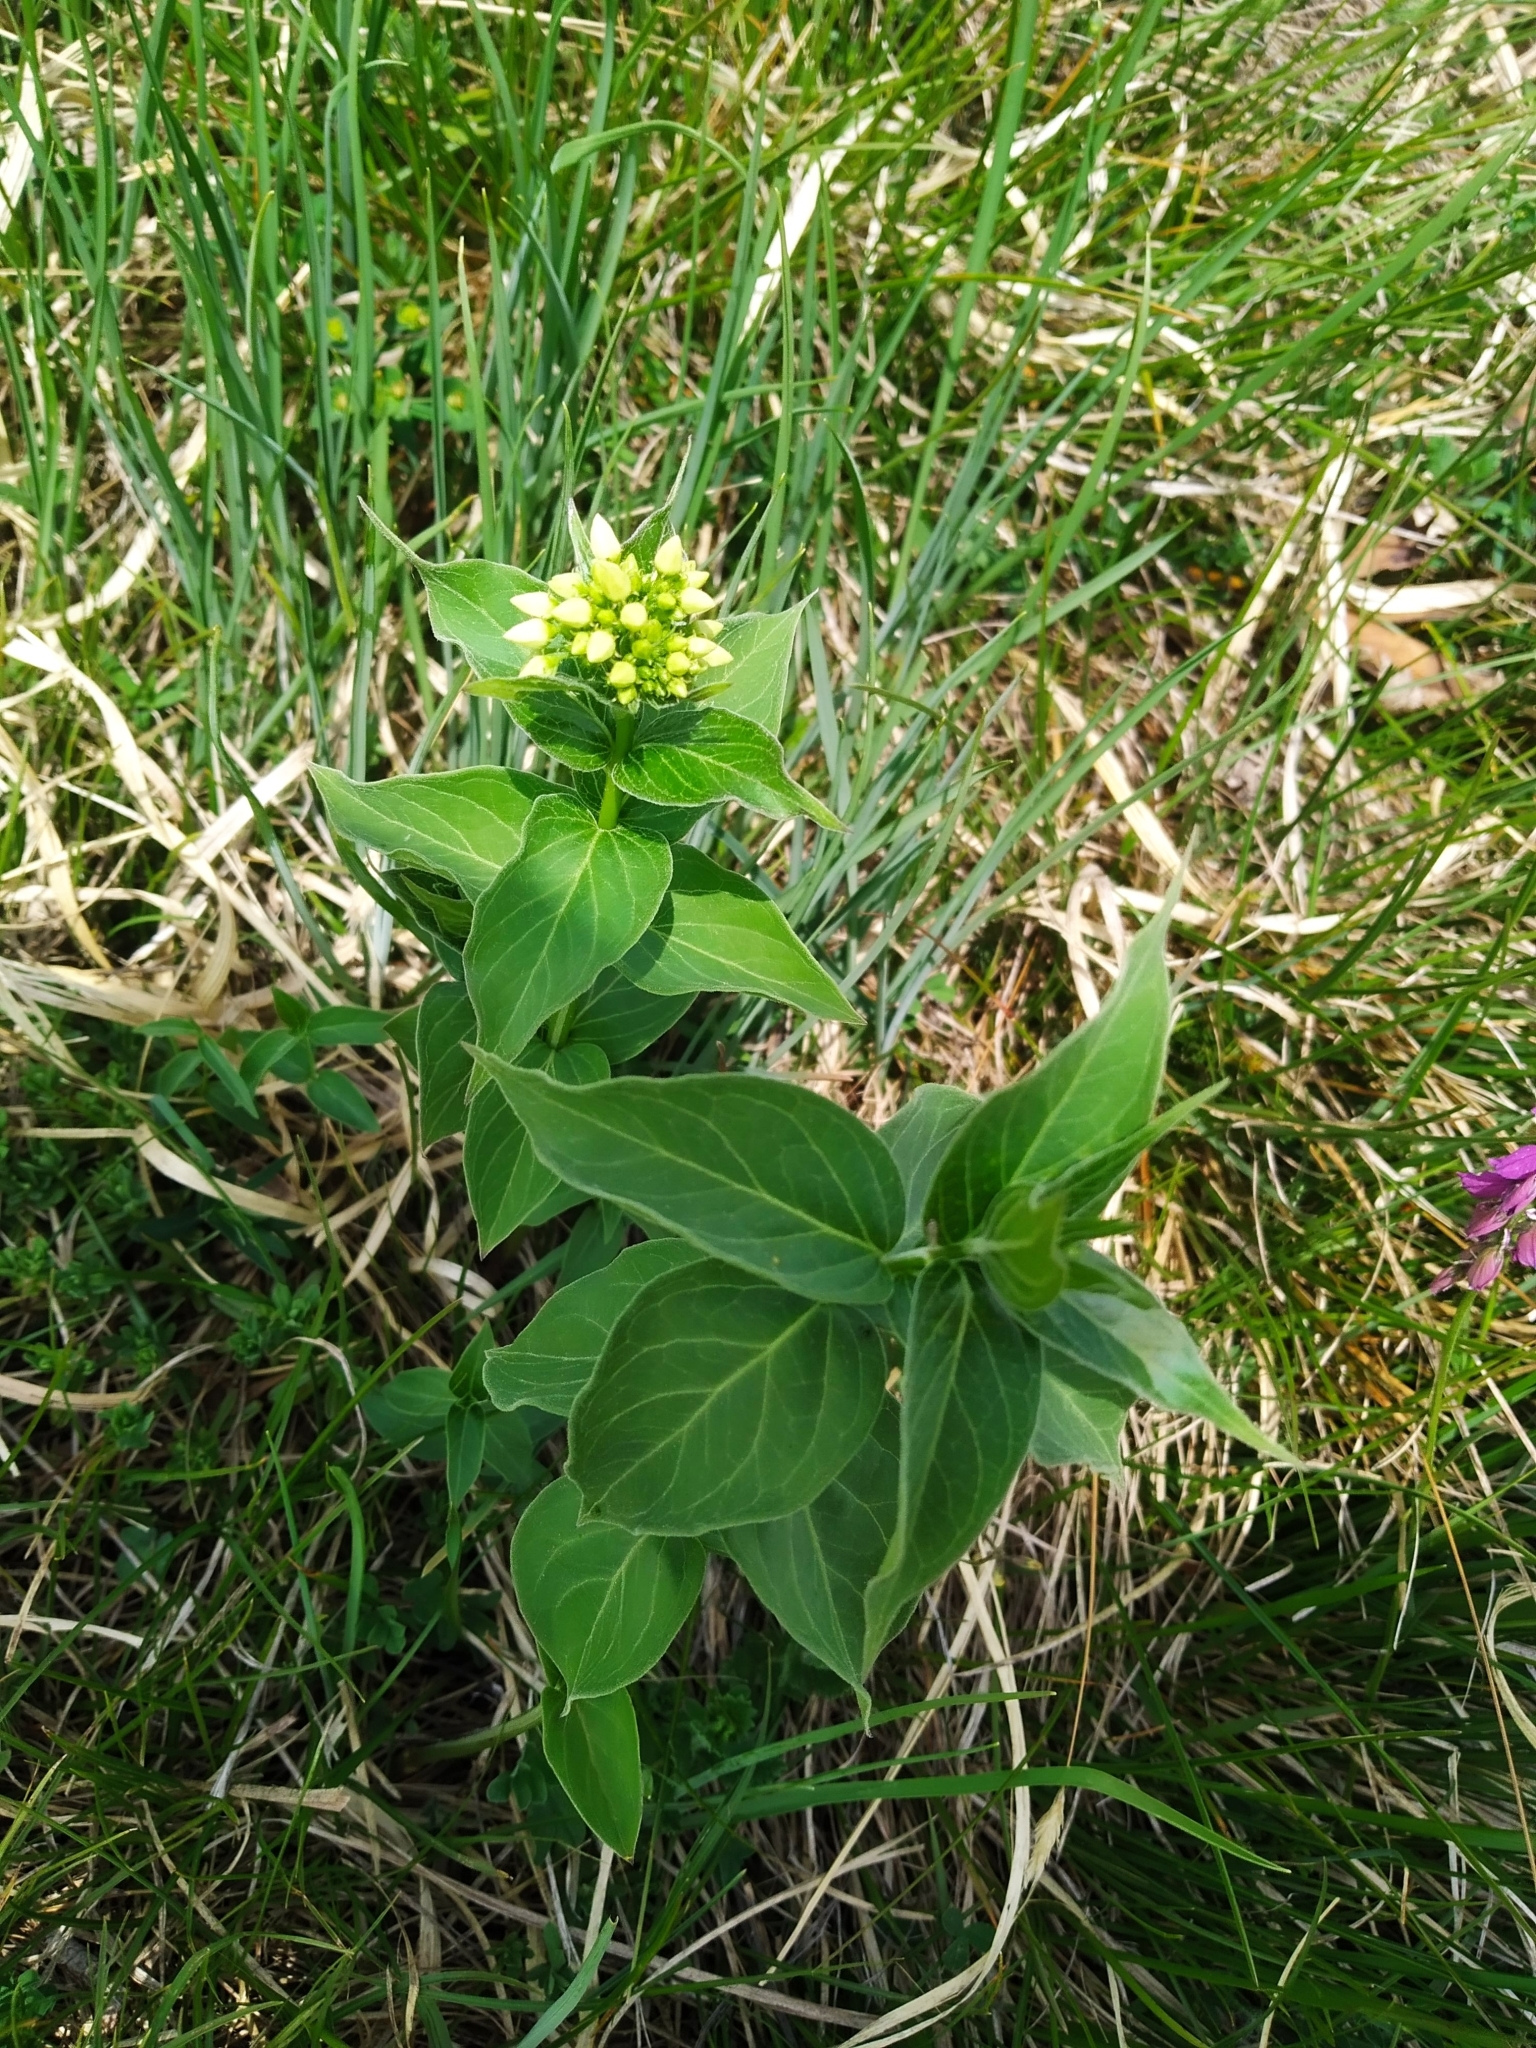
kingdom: Plantae
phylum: Tracheophyta
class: Magnoliopsida
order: Gentianales
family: Apocynaceae
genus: Vincetoxicum
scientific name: Vincetoxicum hirundinaria
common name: White swallowwort
